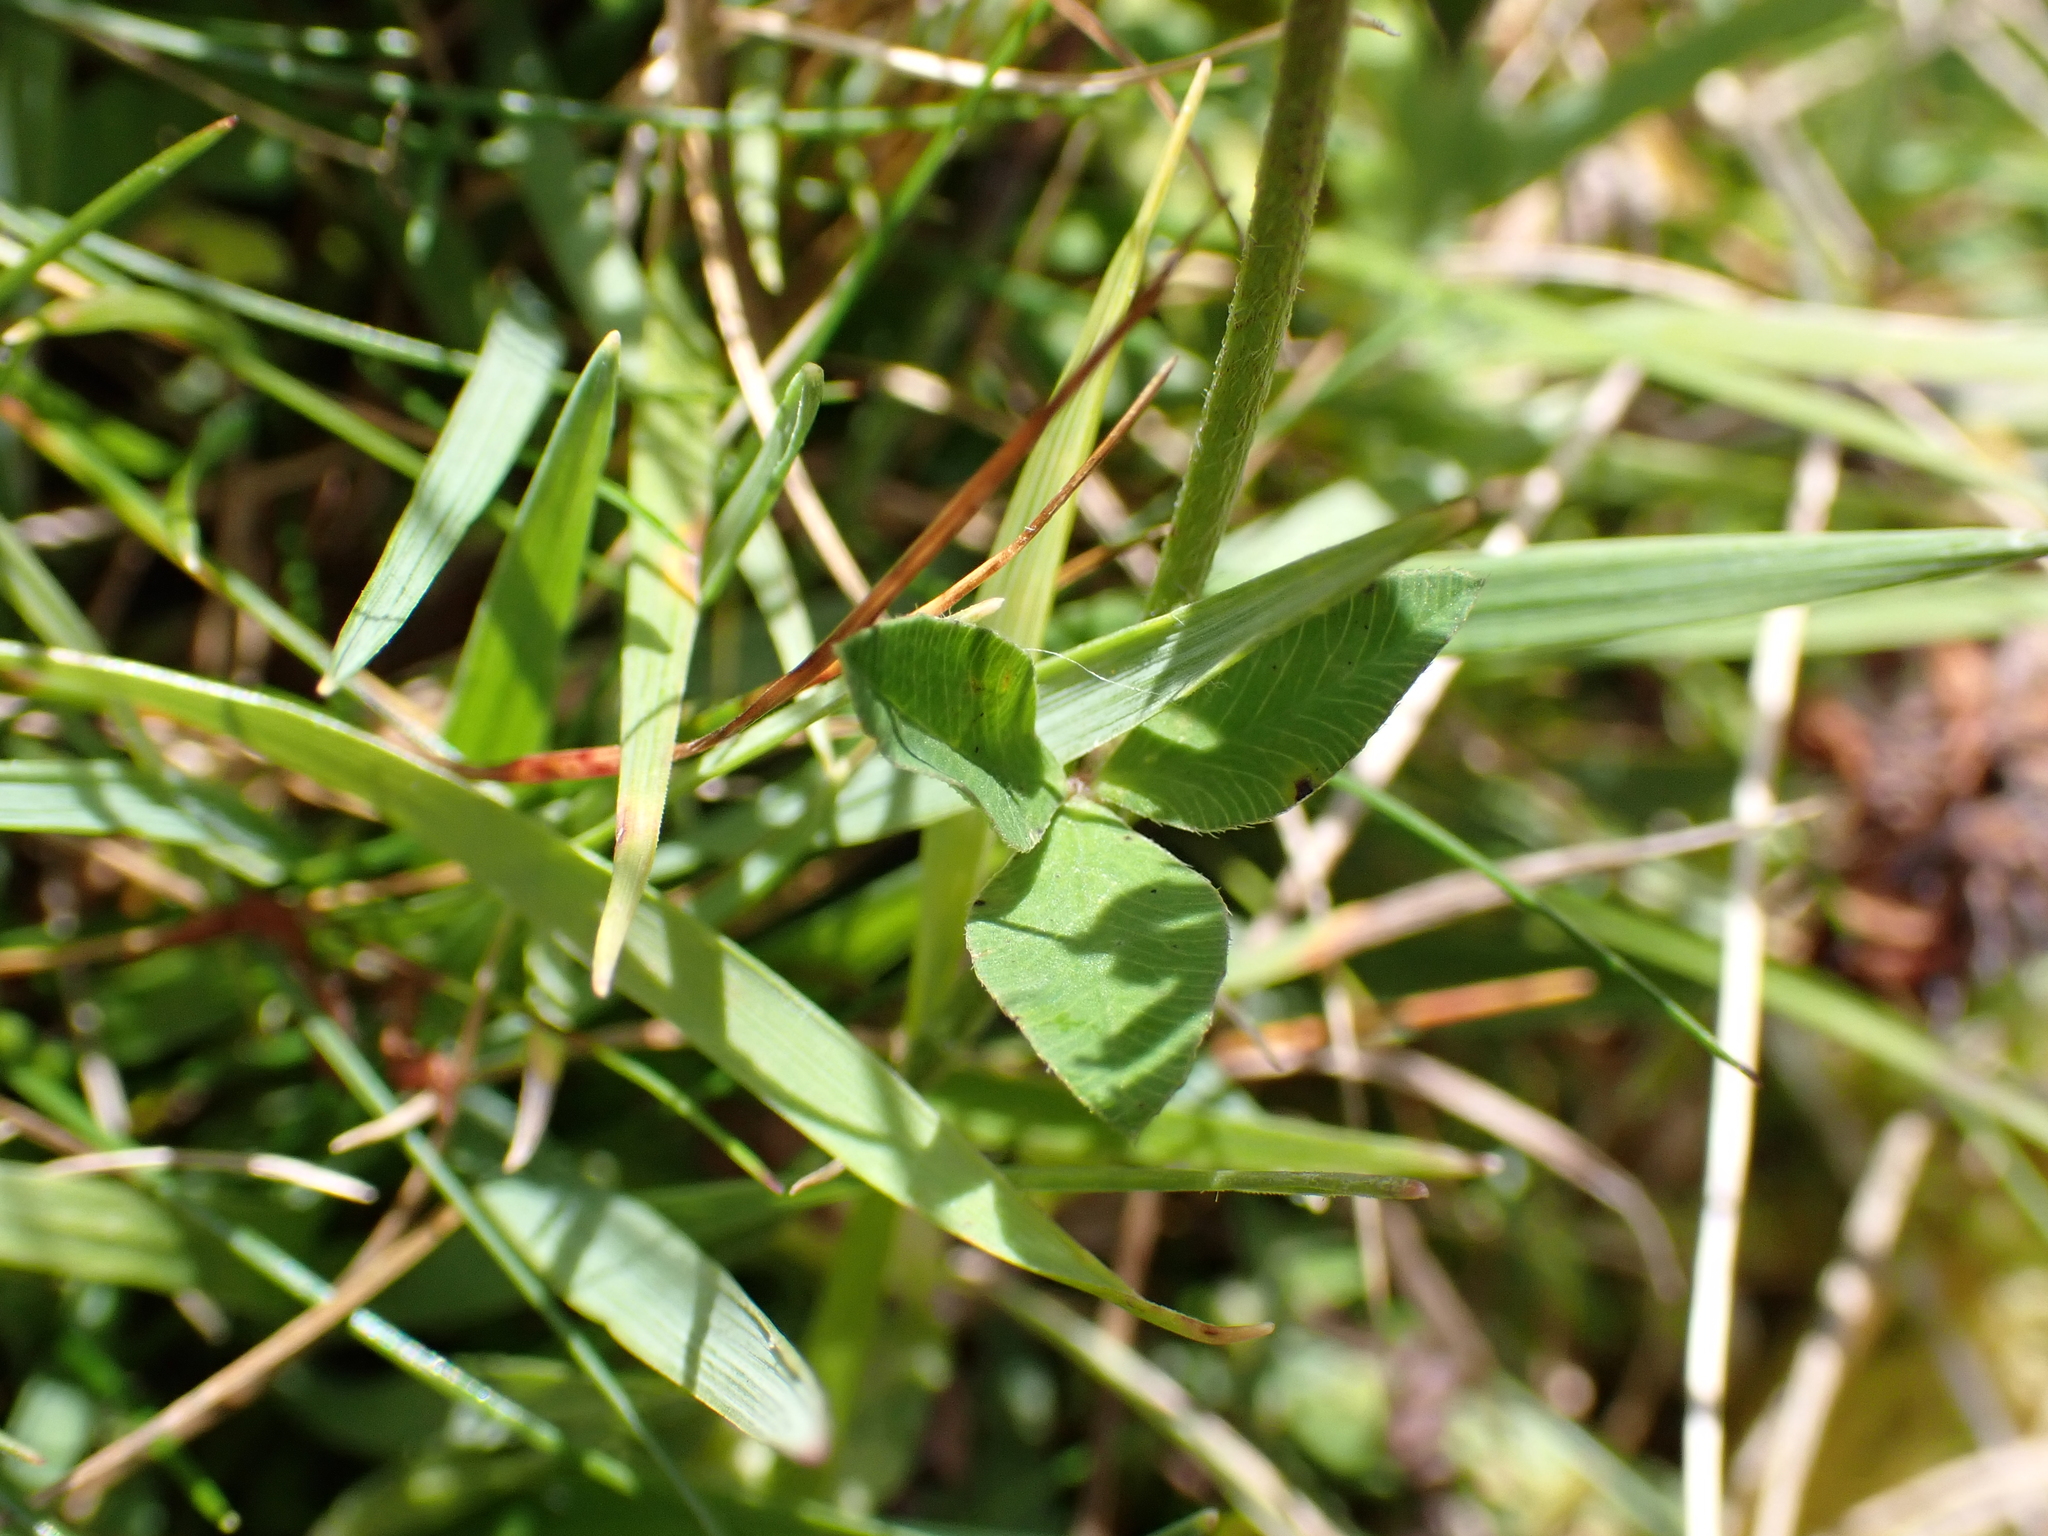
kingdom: Plantae
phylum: Tracheophyta
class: Magnoliopsida
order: Fabales
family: Fabaceae
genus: Trifolium
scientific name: Trifolium pratense
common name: Red clover
